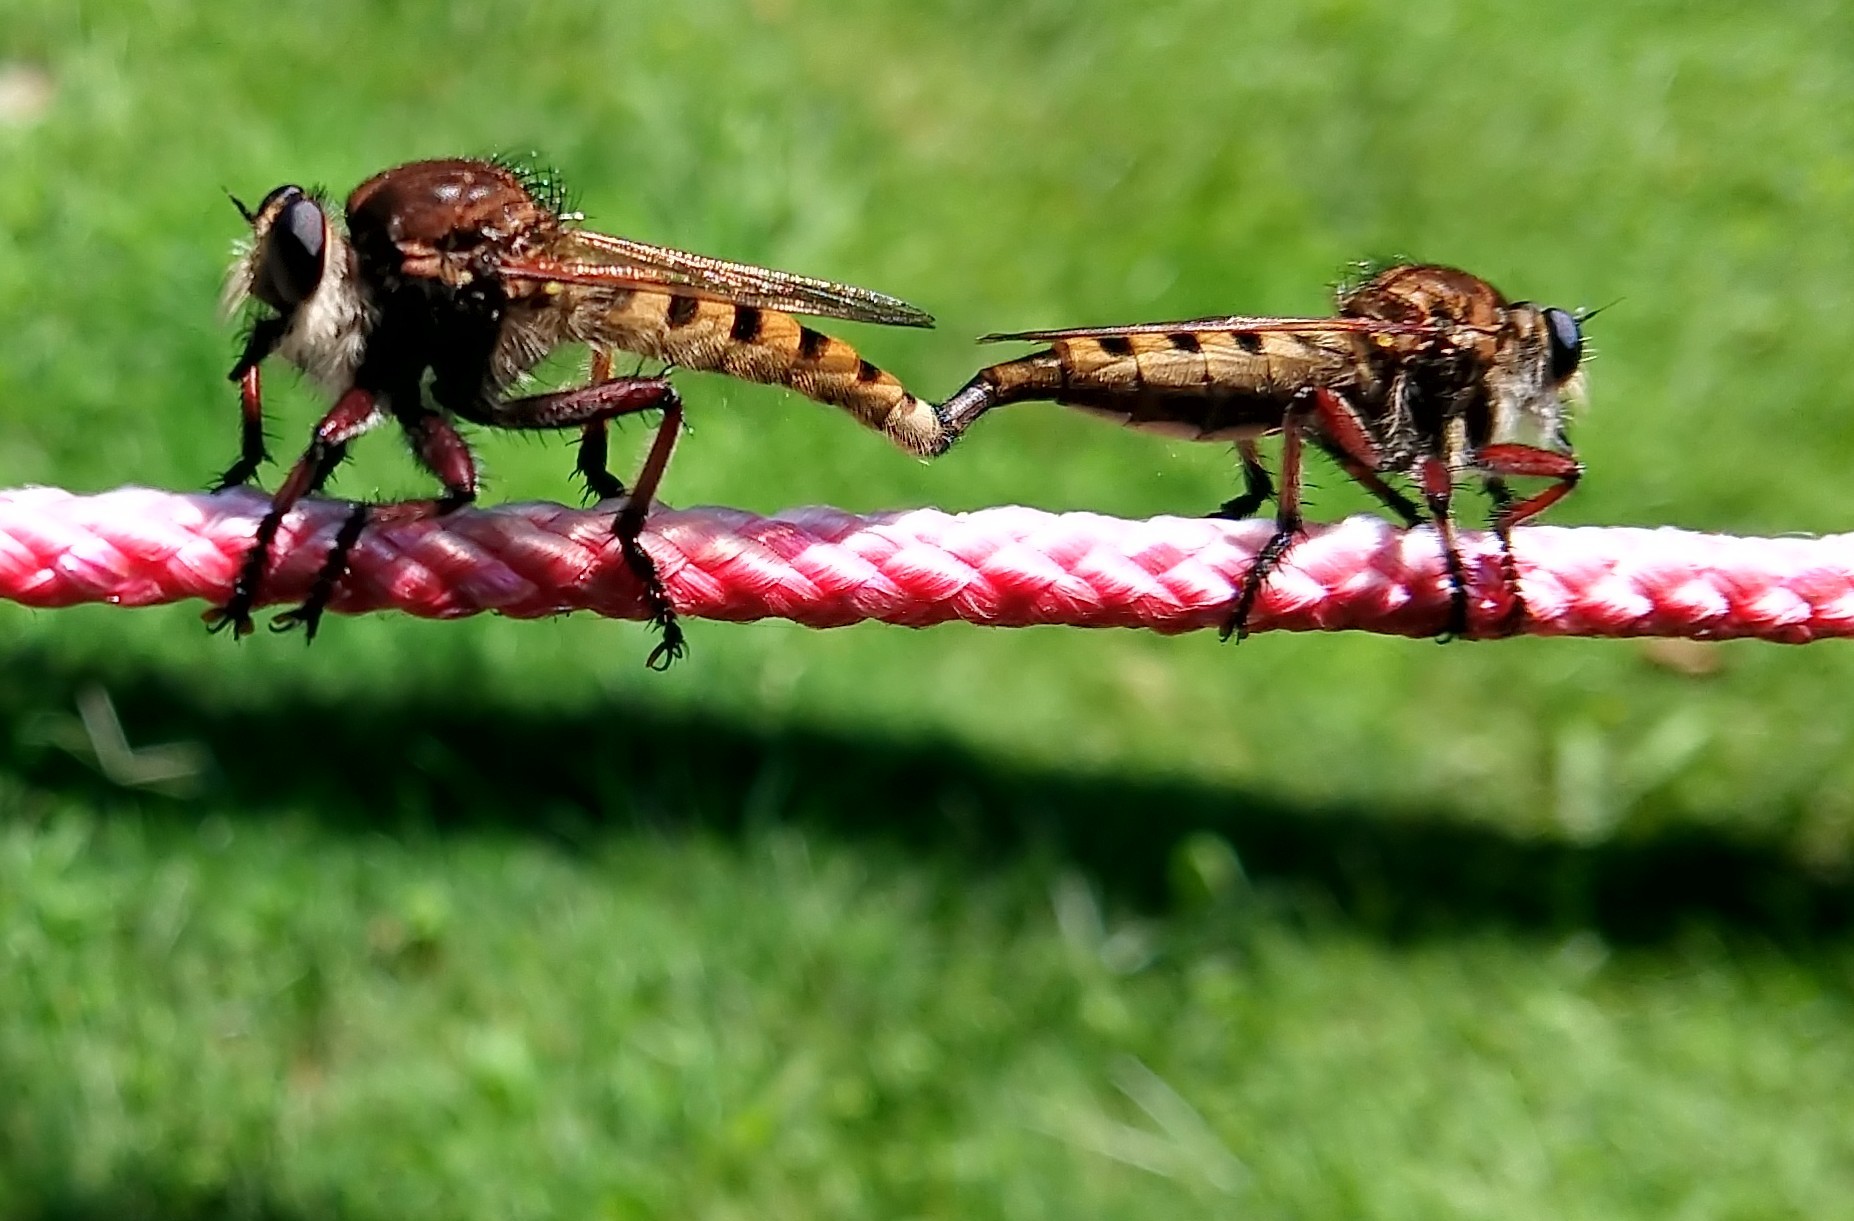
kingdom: Animalia
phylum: Arthropoda
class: Insecta
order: Diptera
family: Asilidae
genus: Promachus
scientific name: Promachus hinei
